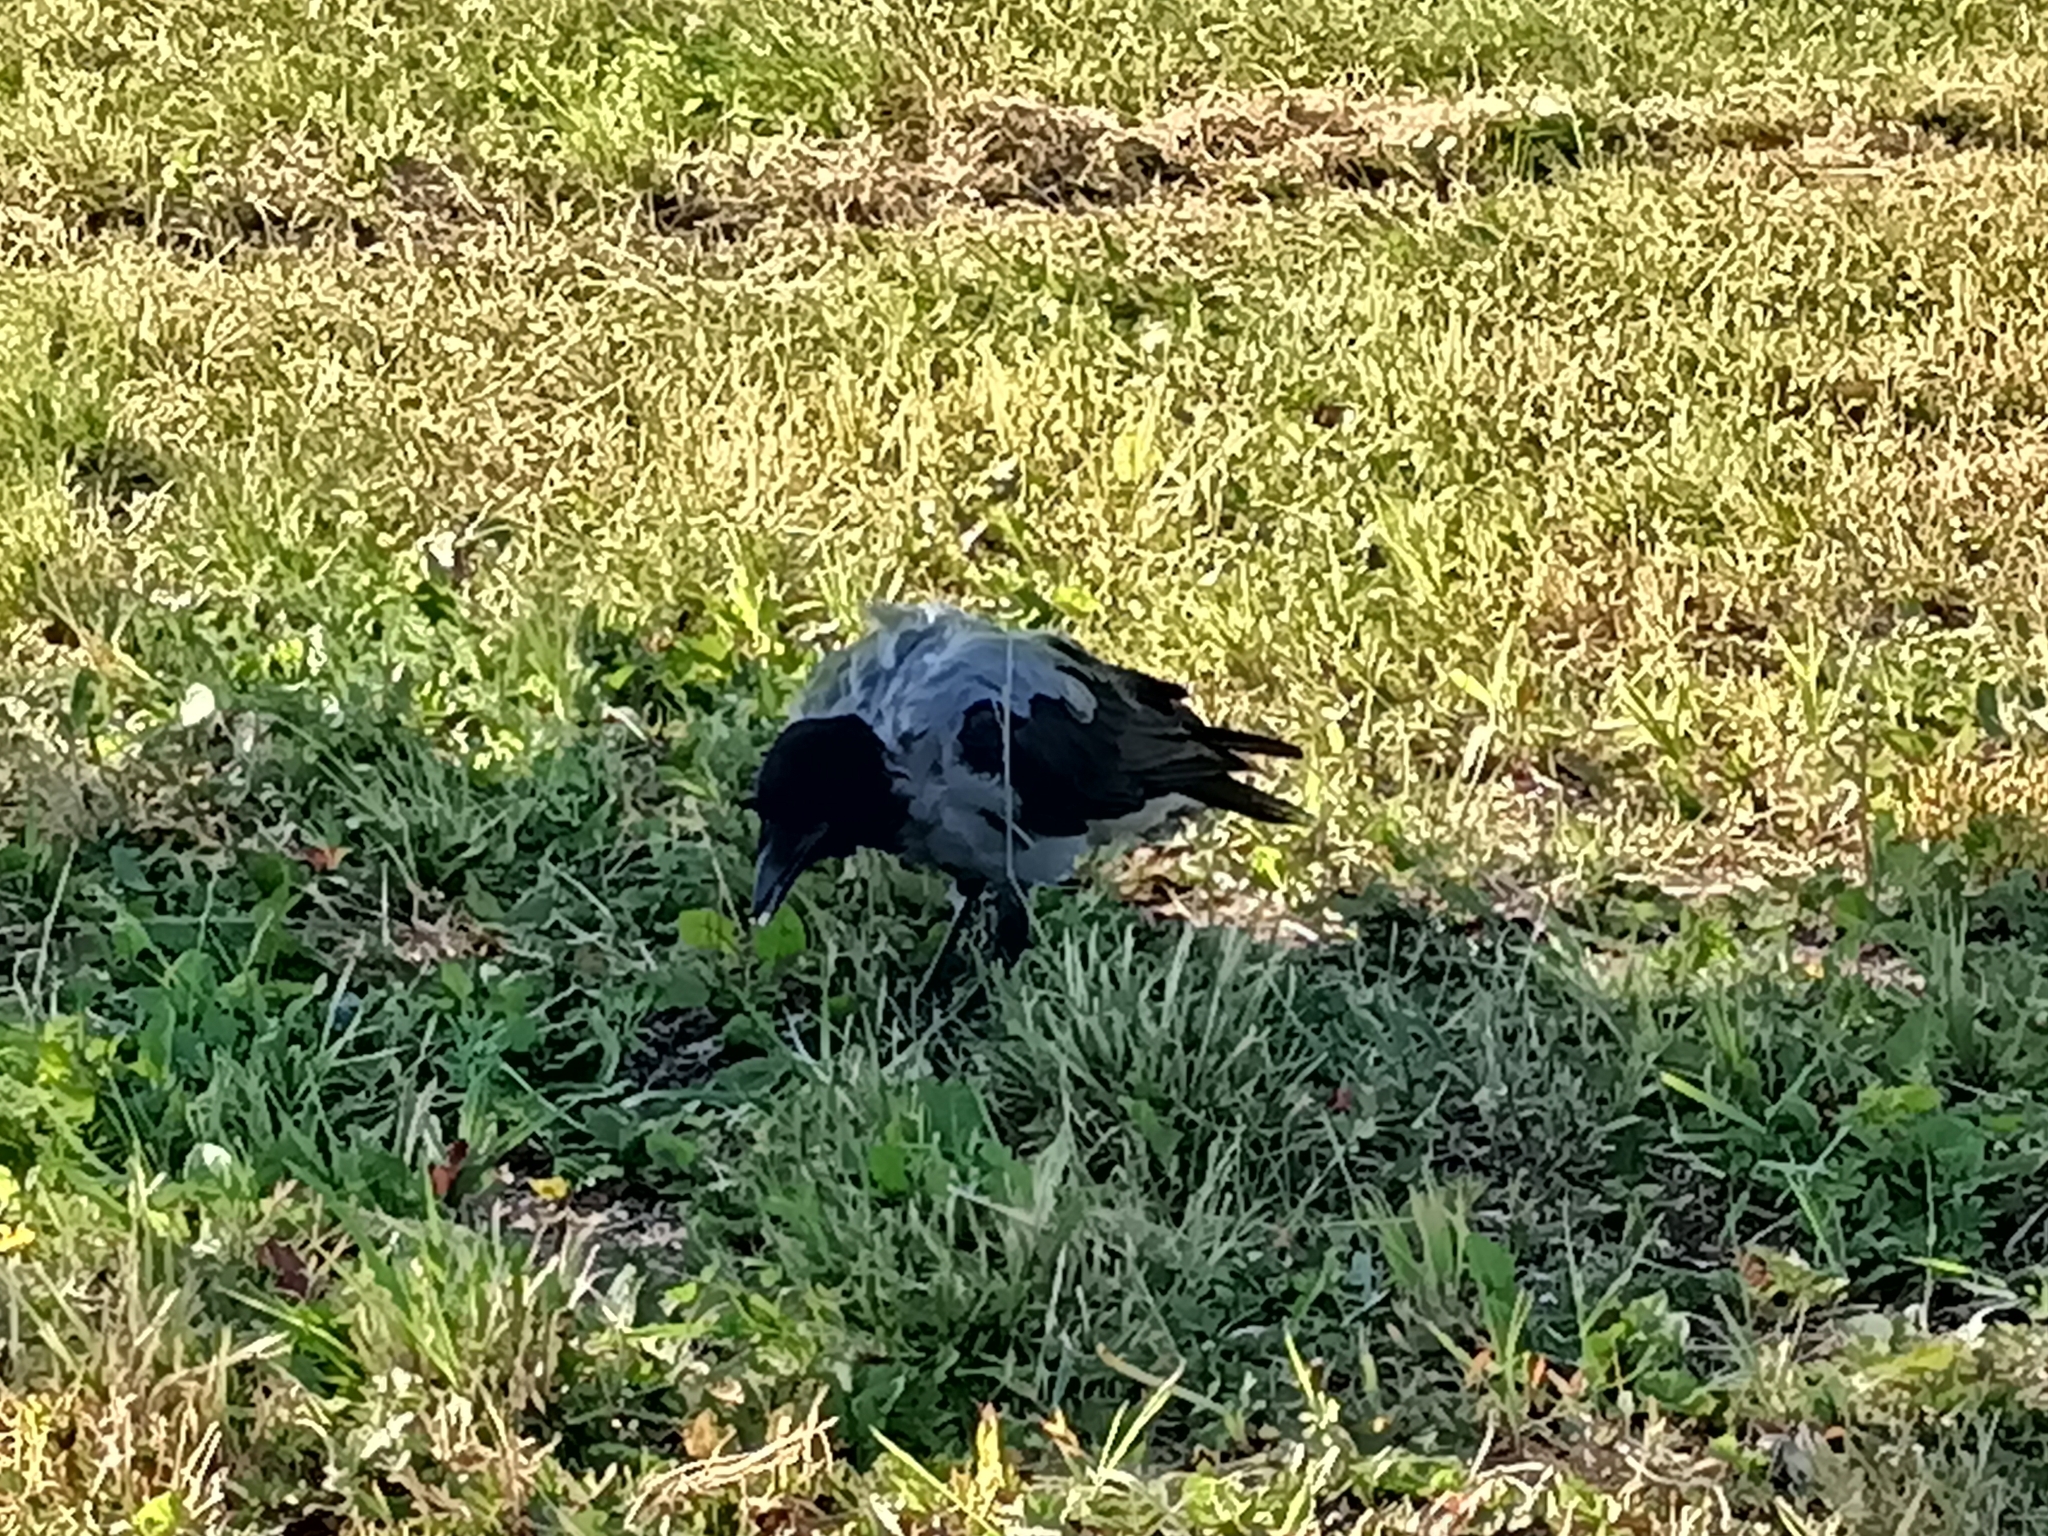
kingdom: Animalia
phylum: Chordata
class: Aves
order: Passeriformes
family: Corvidae
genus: Corvus
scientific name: Corvus cornix
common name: Hooded crow
